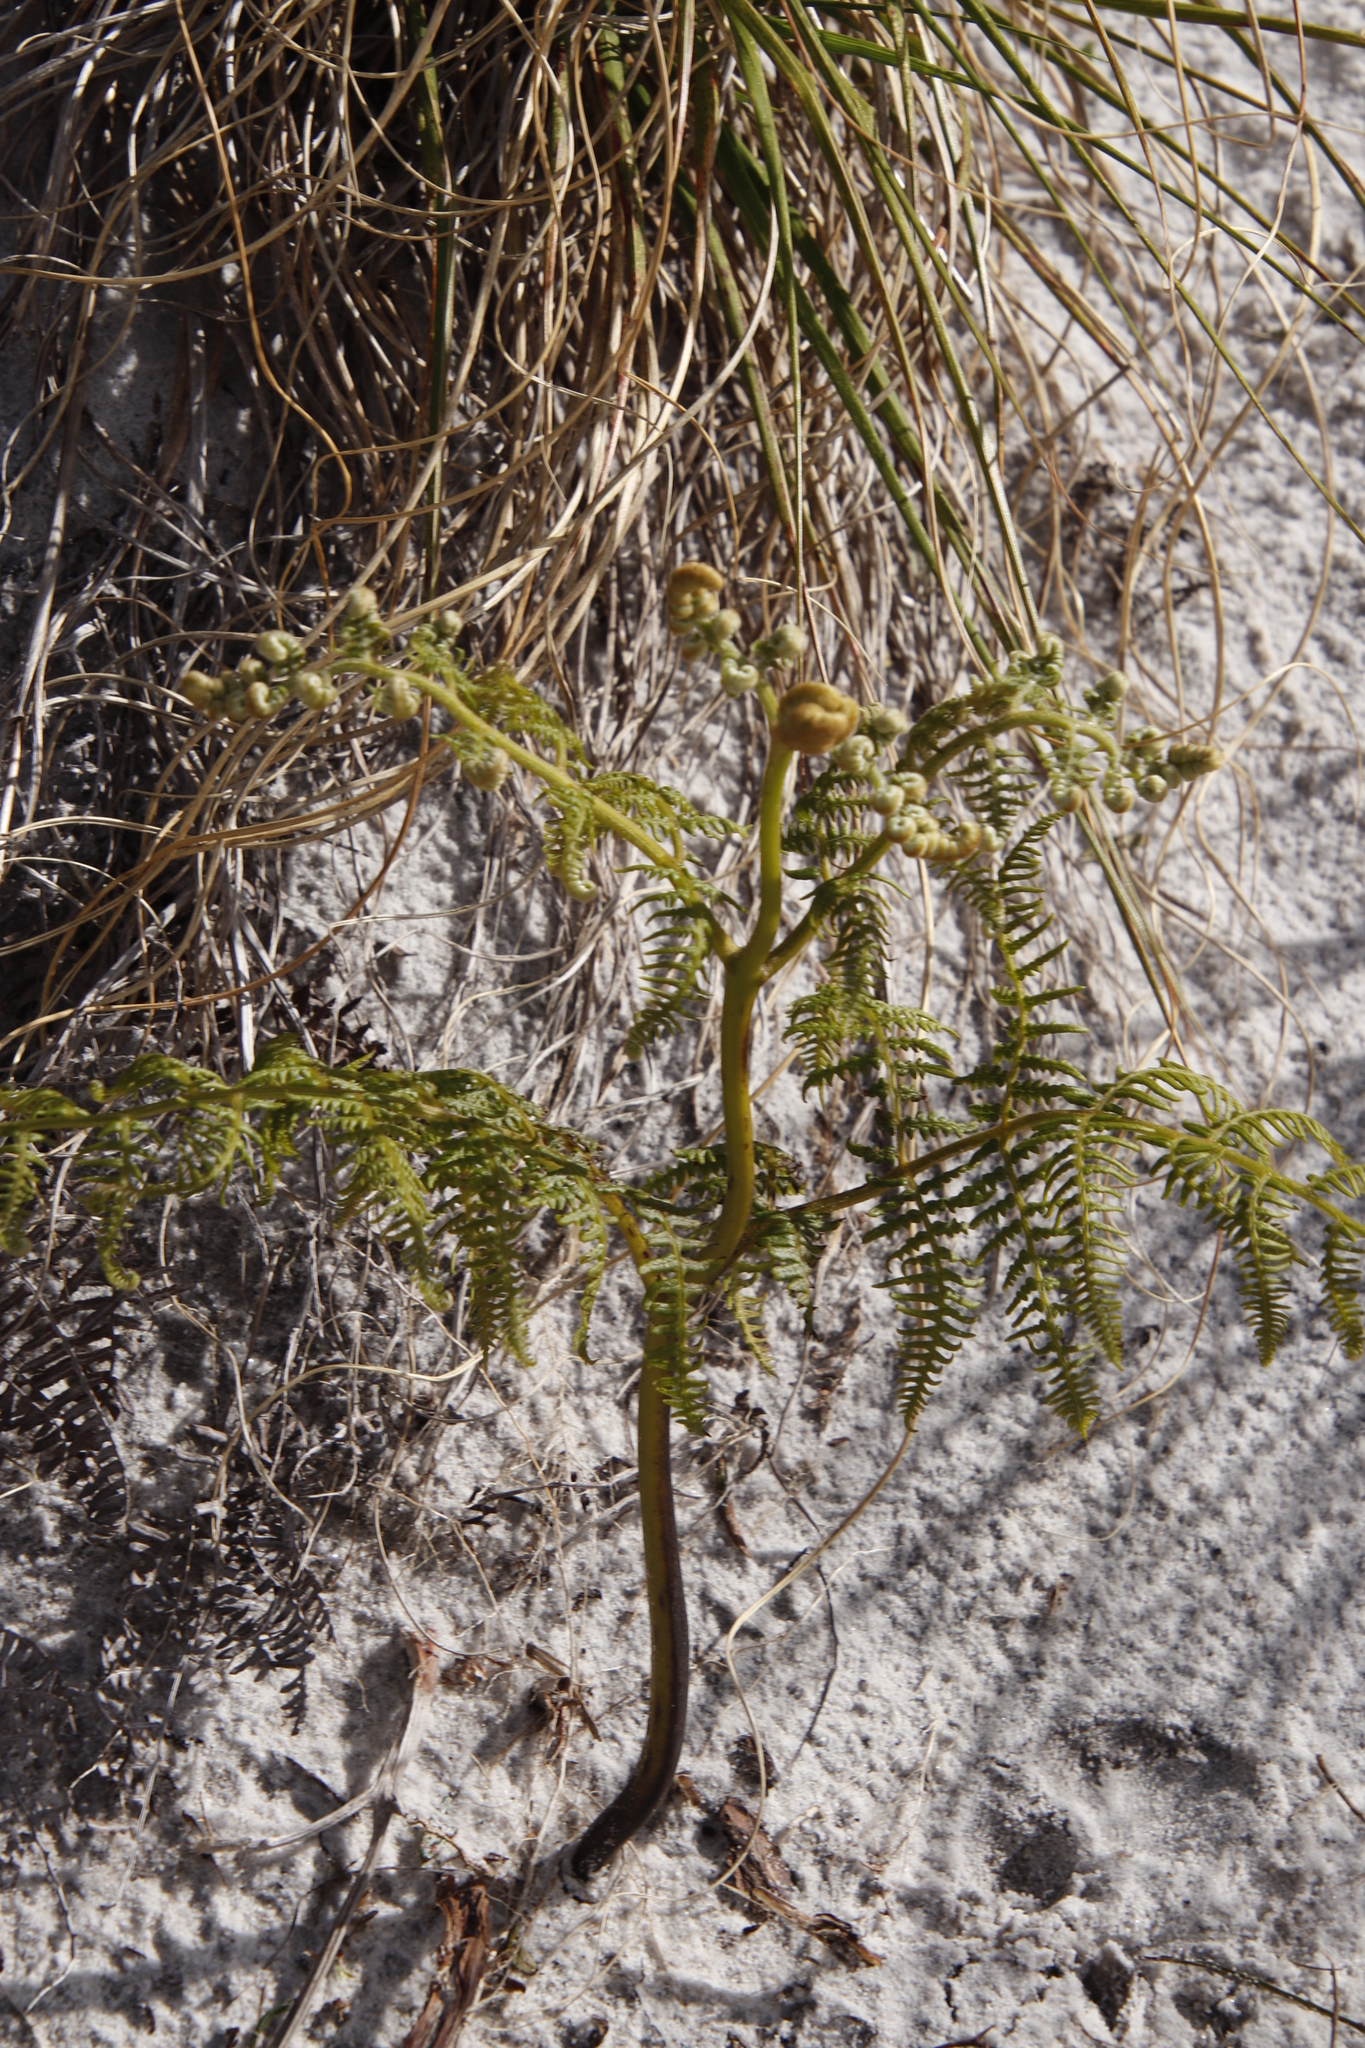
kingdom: Plantae
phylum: Tracheophyta
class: Polypodiopsida
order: Polypodiales
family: Dennstaedtiaceae
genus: Pteridium
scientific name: Pteridium aquilinum
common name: Bracken
